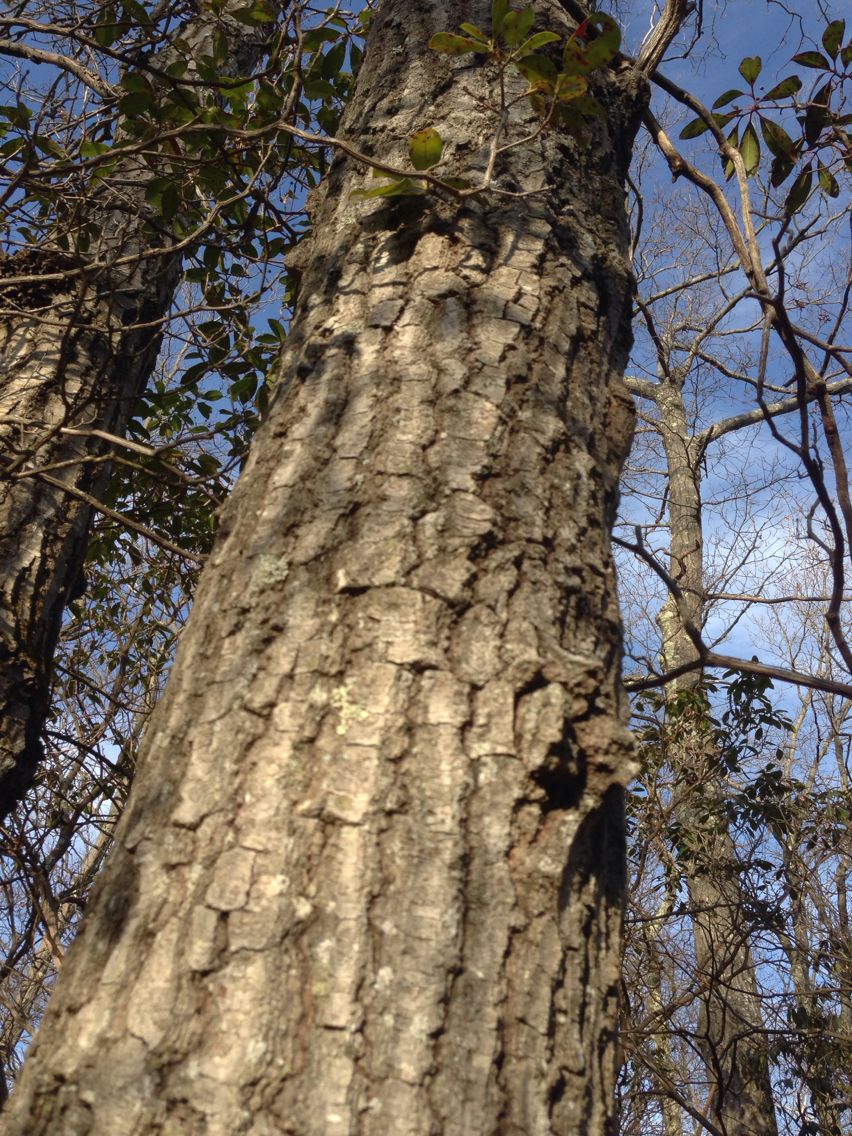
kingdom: Plantae
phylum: Tracheophyta
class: Magnoliopsida
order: Fagales
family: Fagaceae
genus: Quercus
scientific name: Quercus rubra
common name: Red oak
